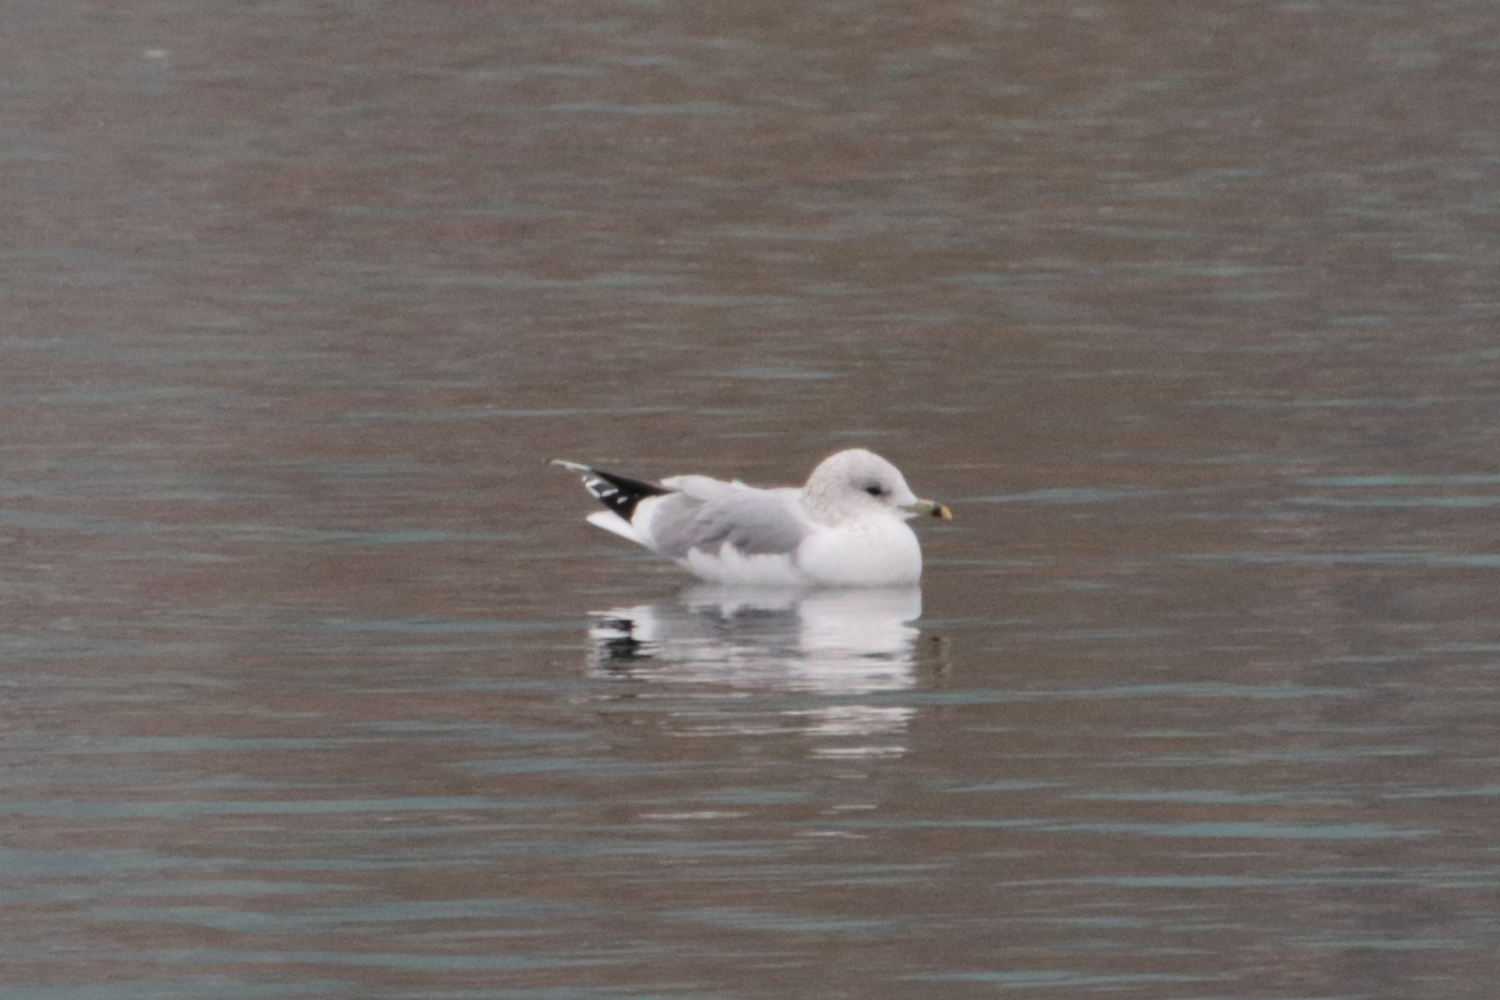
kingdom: Animalia
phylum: Chordata
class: Aves
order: Charadriiformes
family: Laridae
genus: Larus
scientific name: Larus canus
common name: Mew gull
